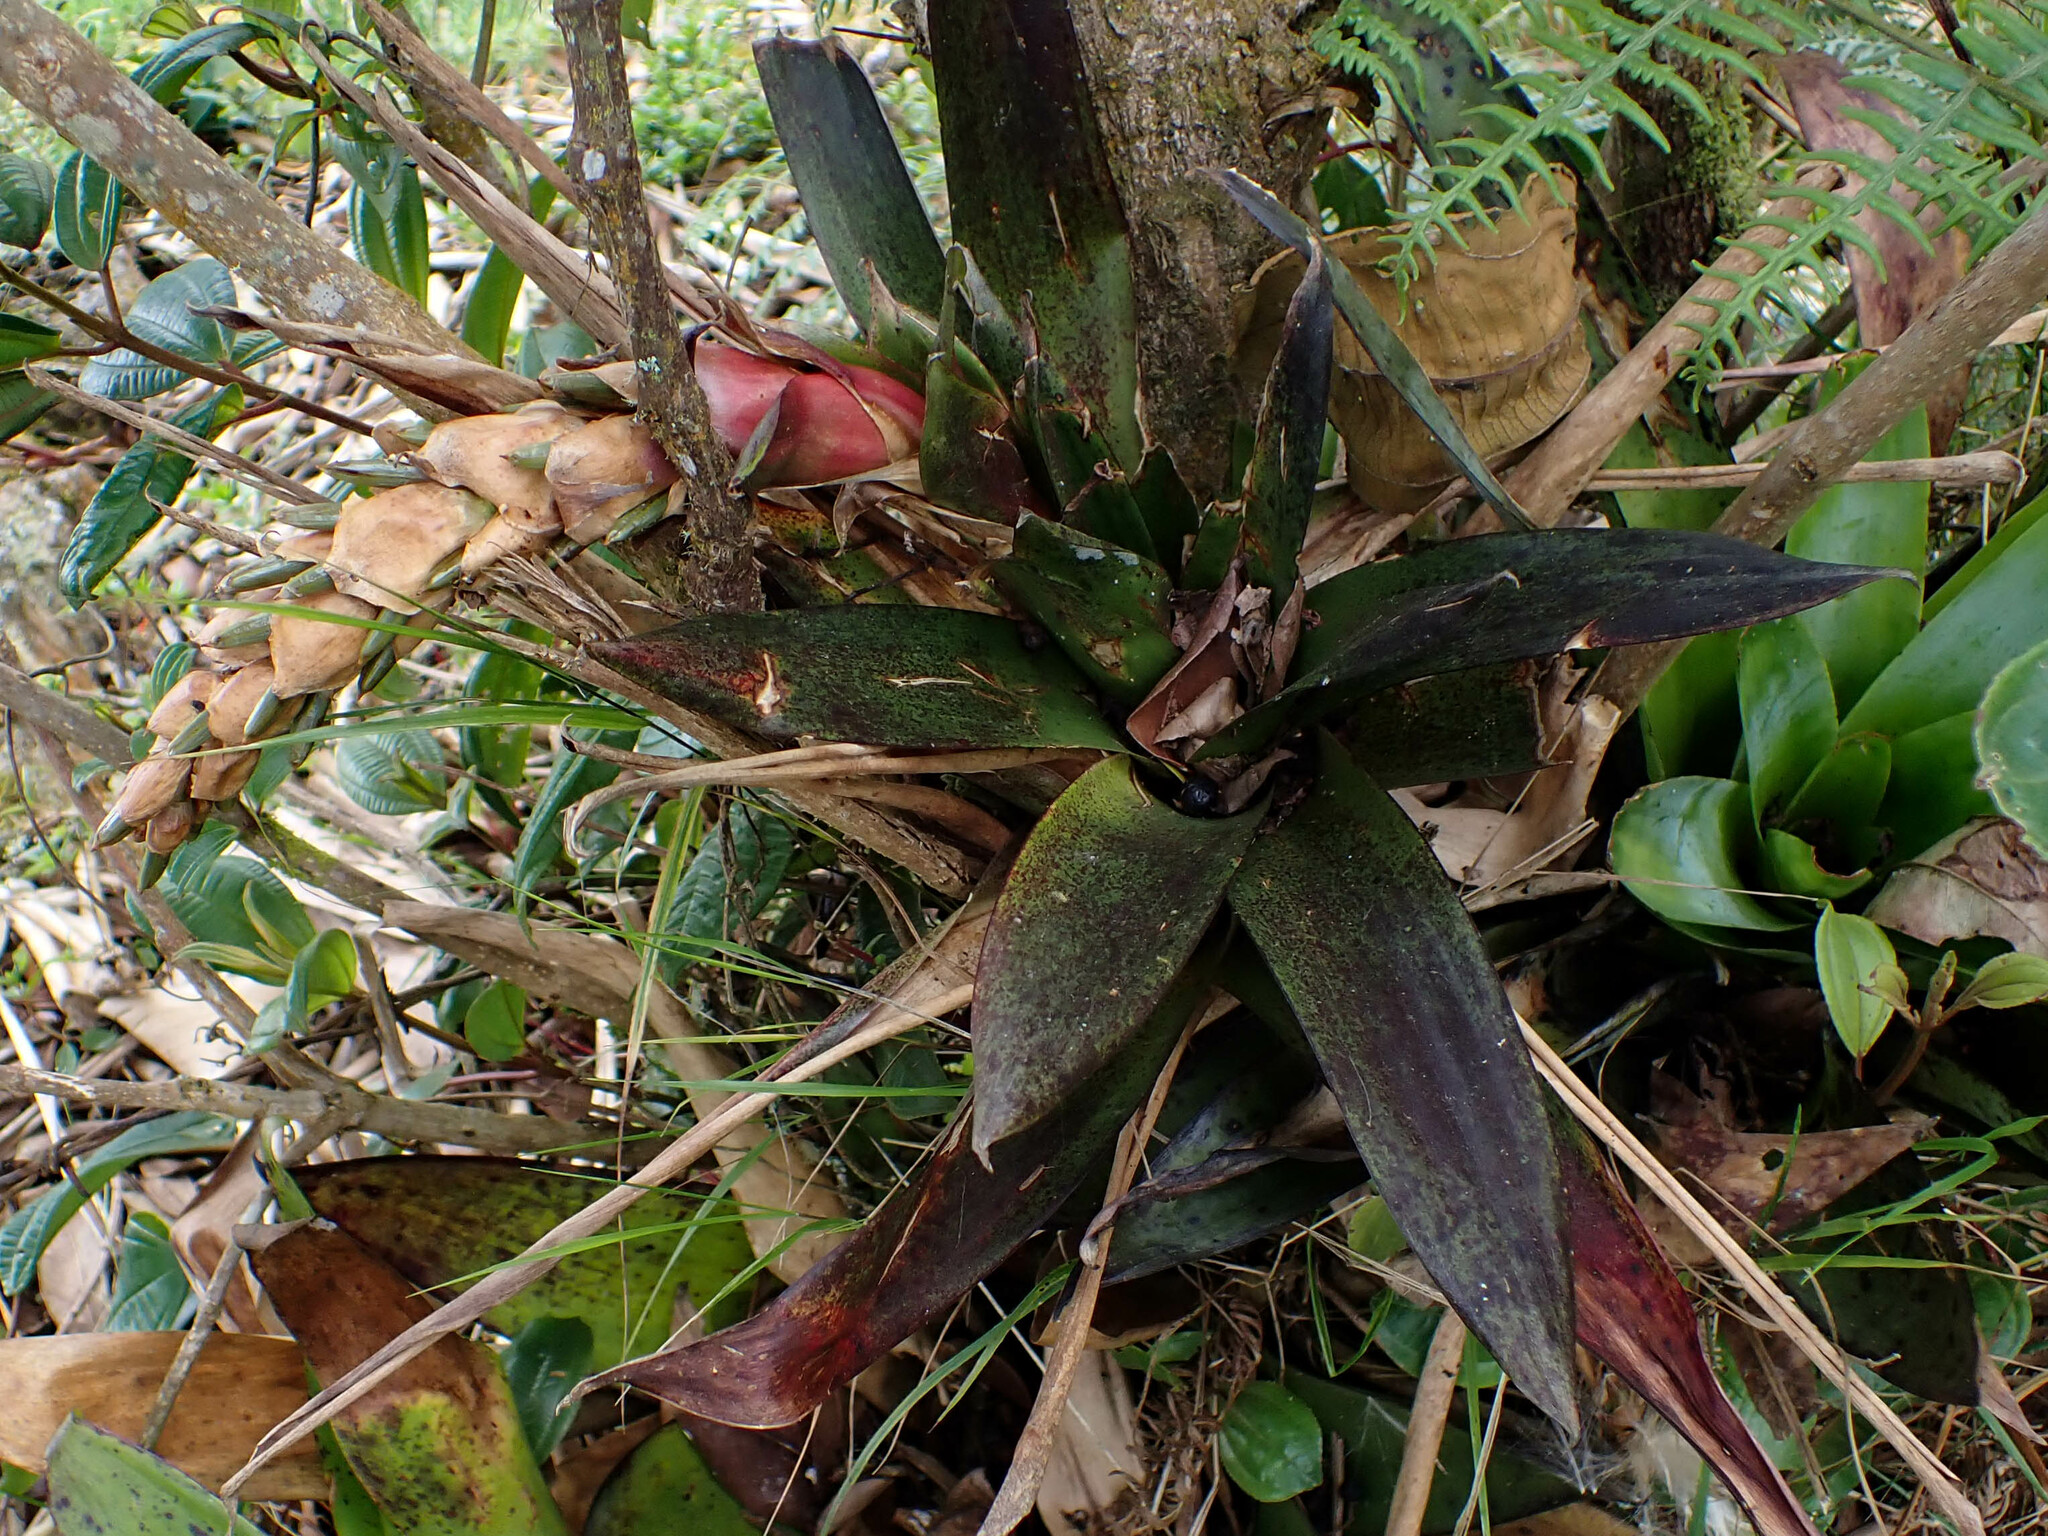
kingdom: Plantae
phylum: Tracheophyta
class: Liliopsida
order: Poales
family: Bromeliaceae
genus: Tillandsia
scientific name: Tillandsia stipitata
